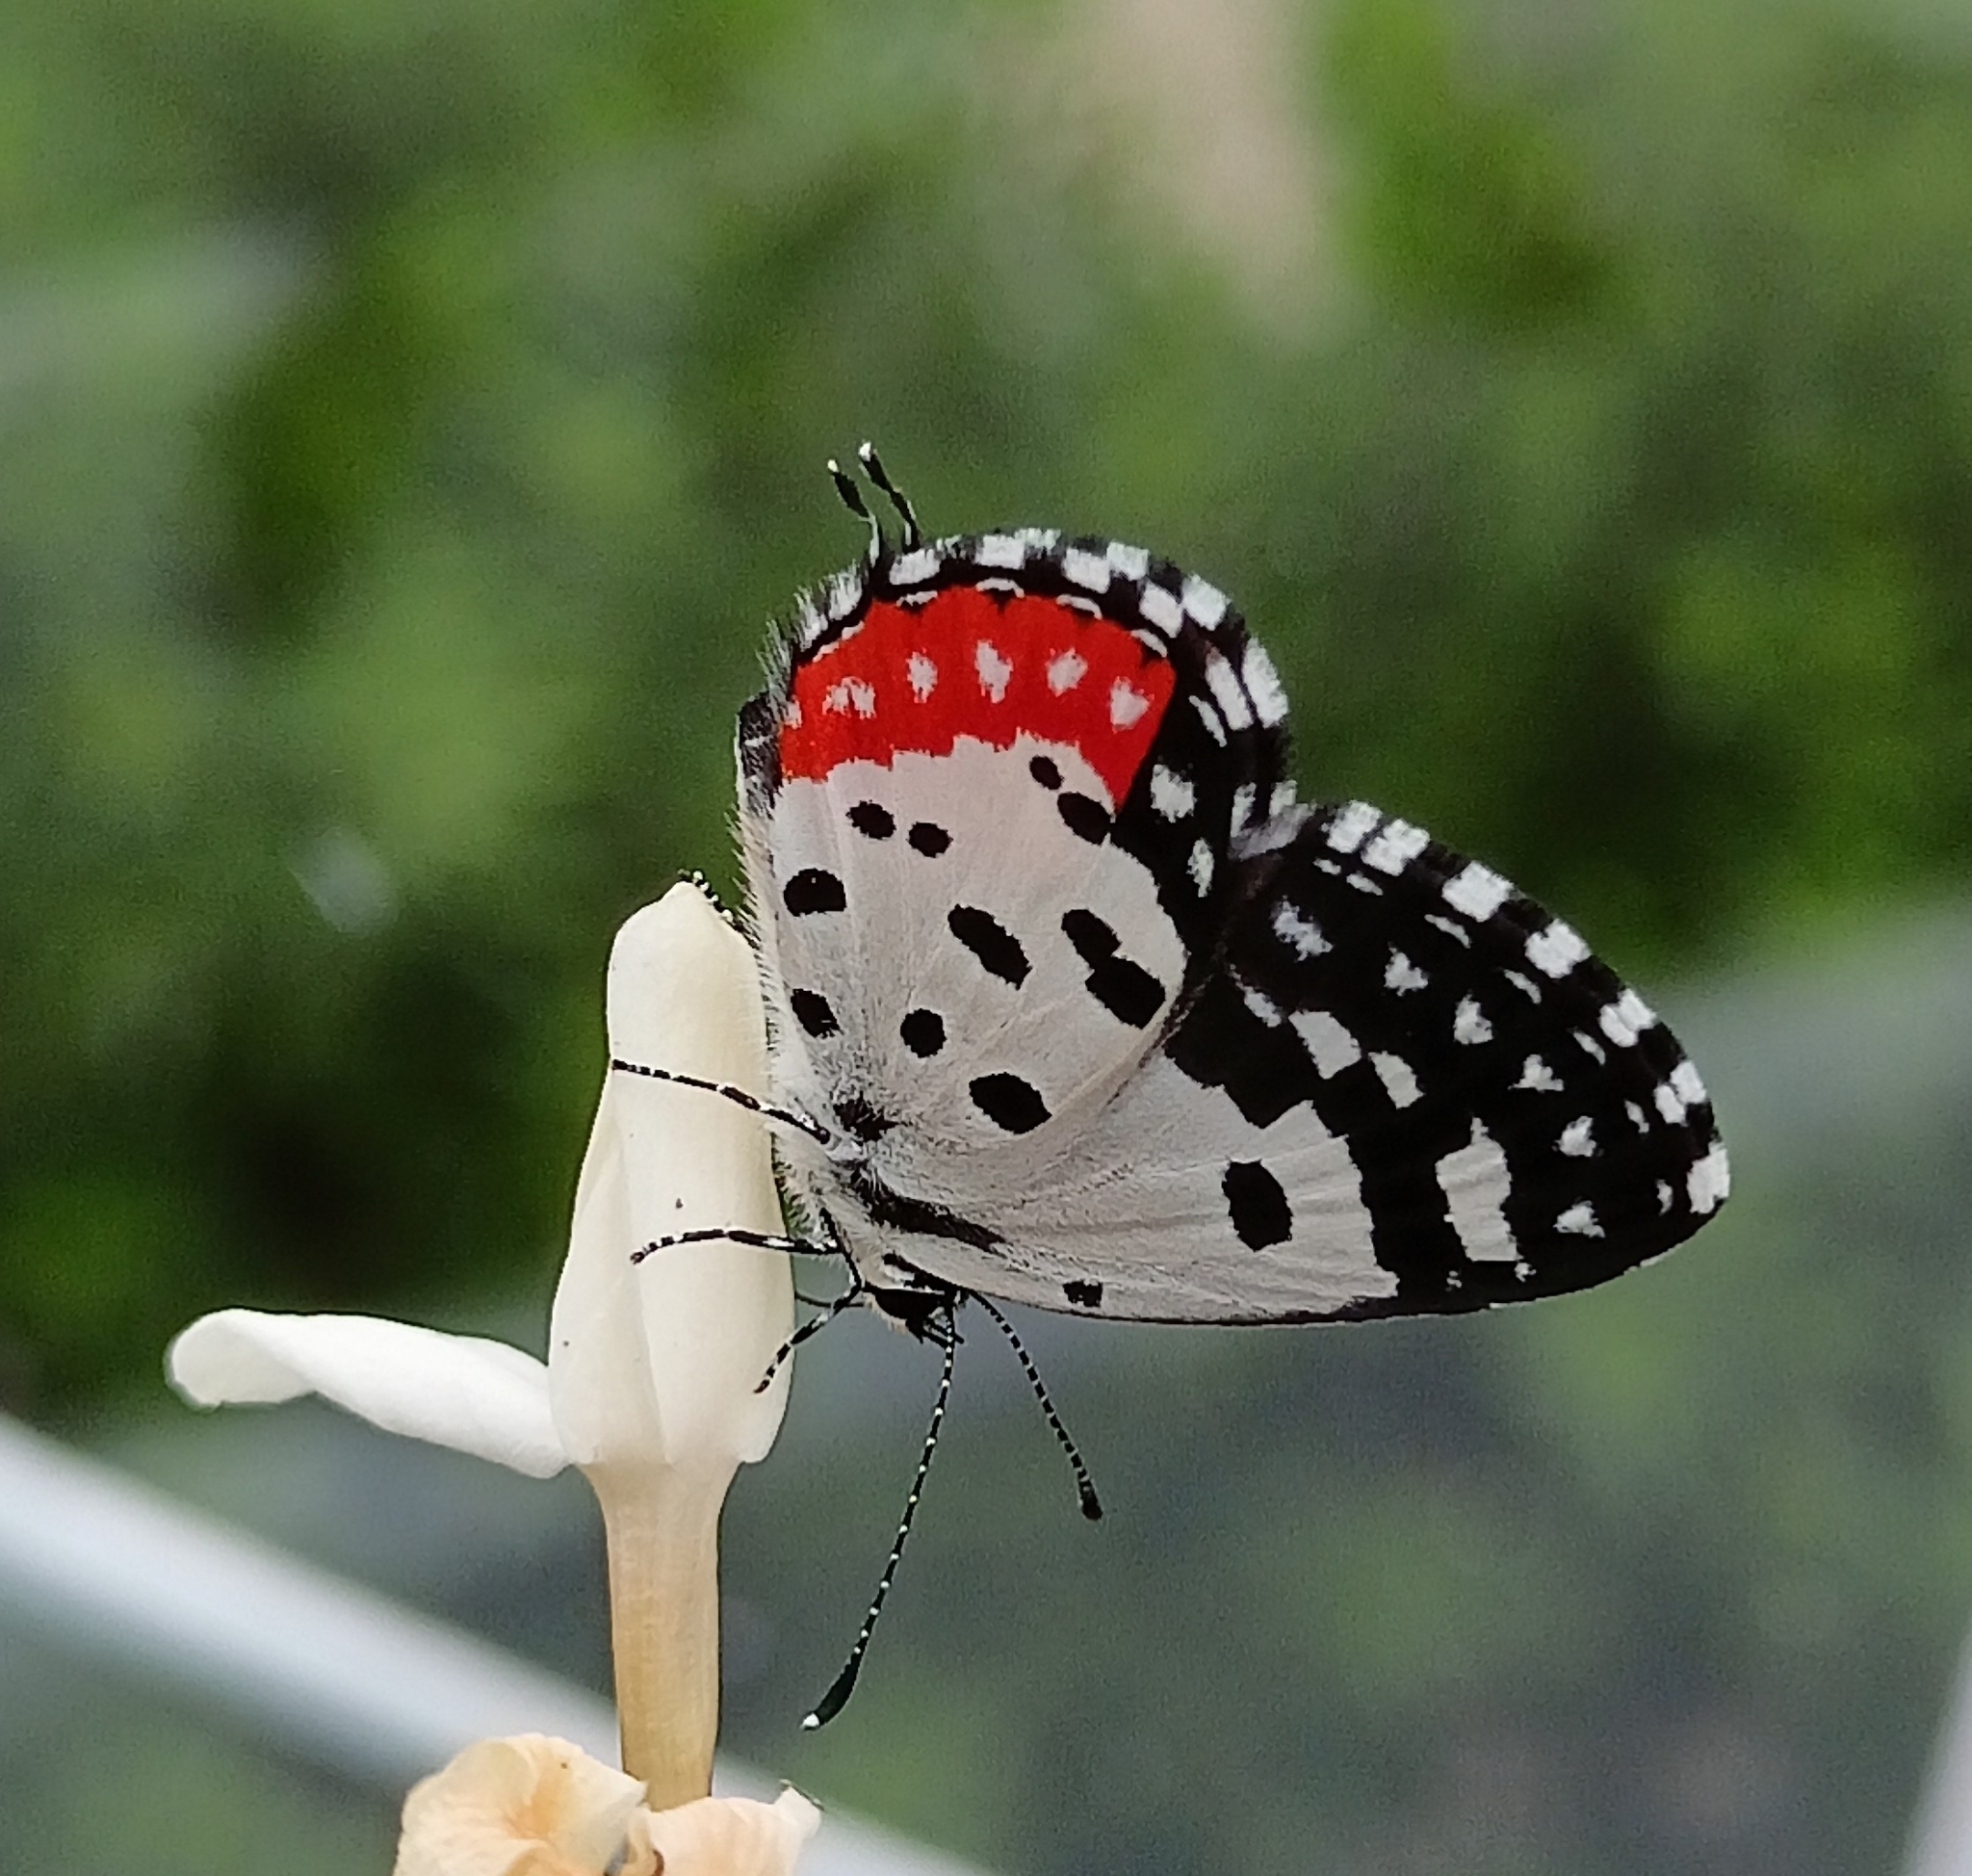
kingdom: Animalia
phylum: Arthropoda
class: Insecta
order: Lepidoptera
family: Lycaenidae
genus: Talicada
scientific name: Talicada nyseus
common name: Red pierrot
